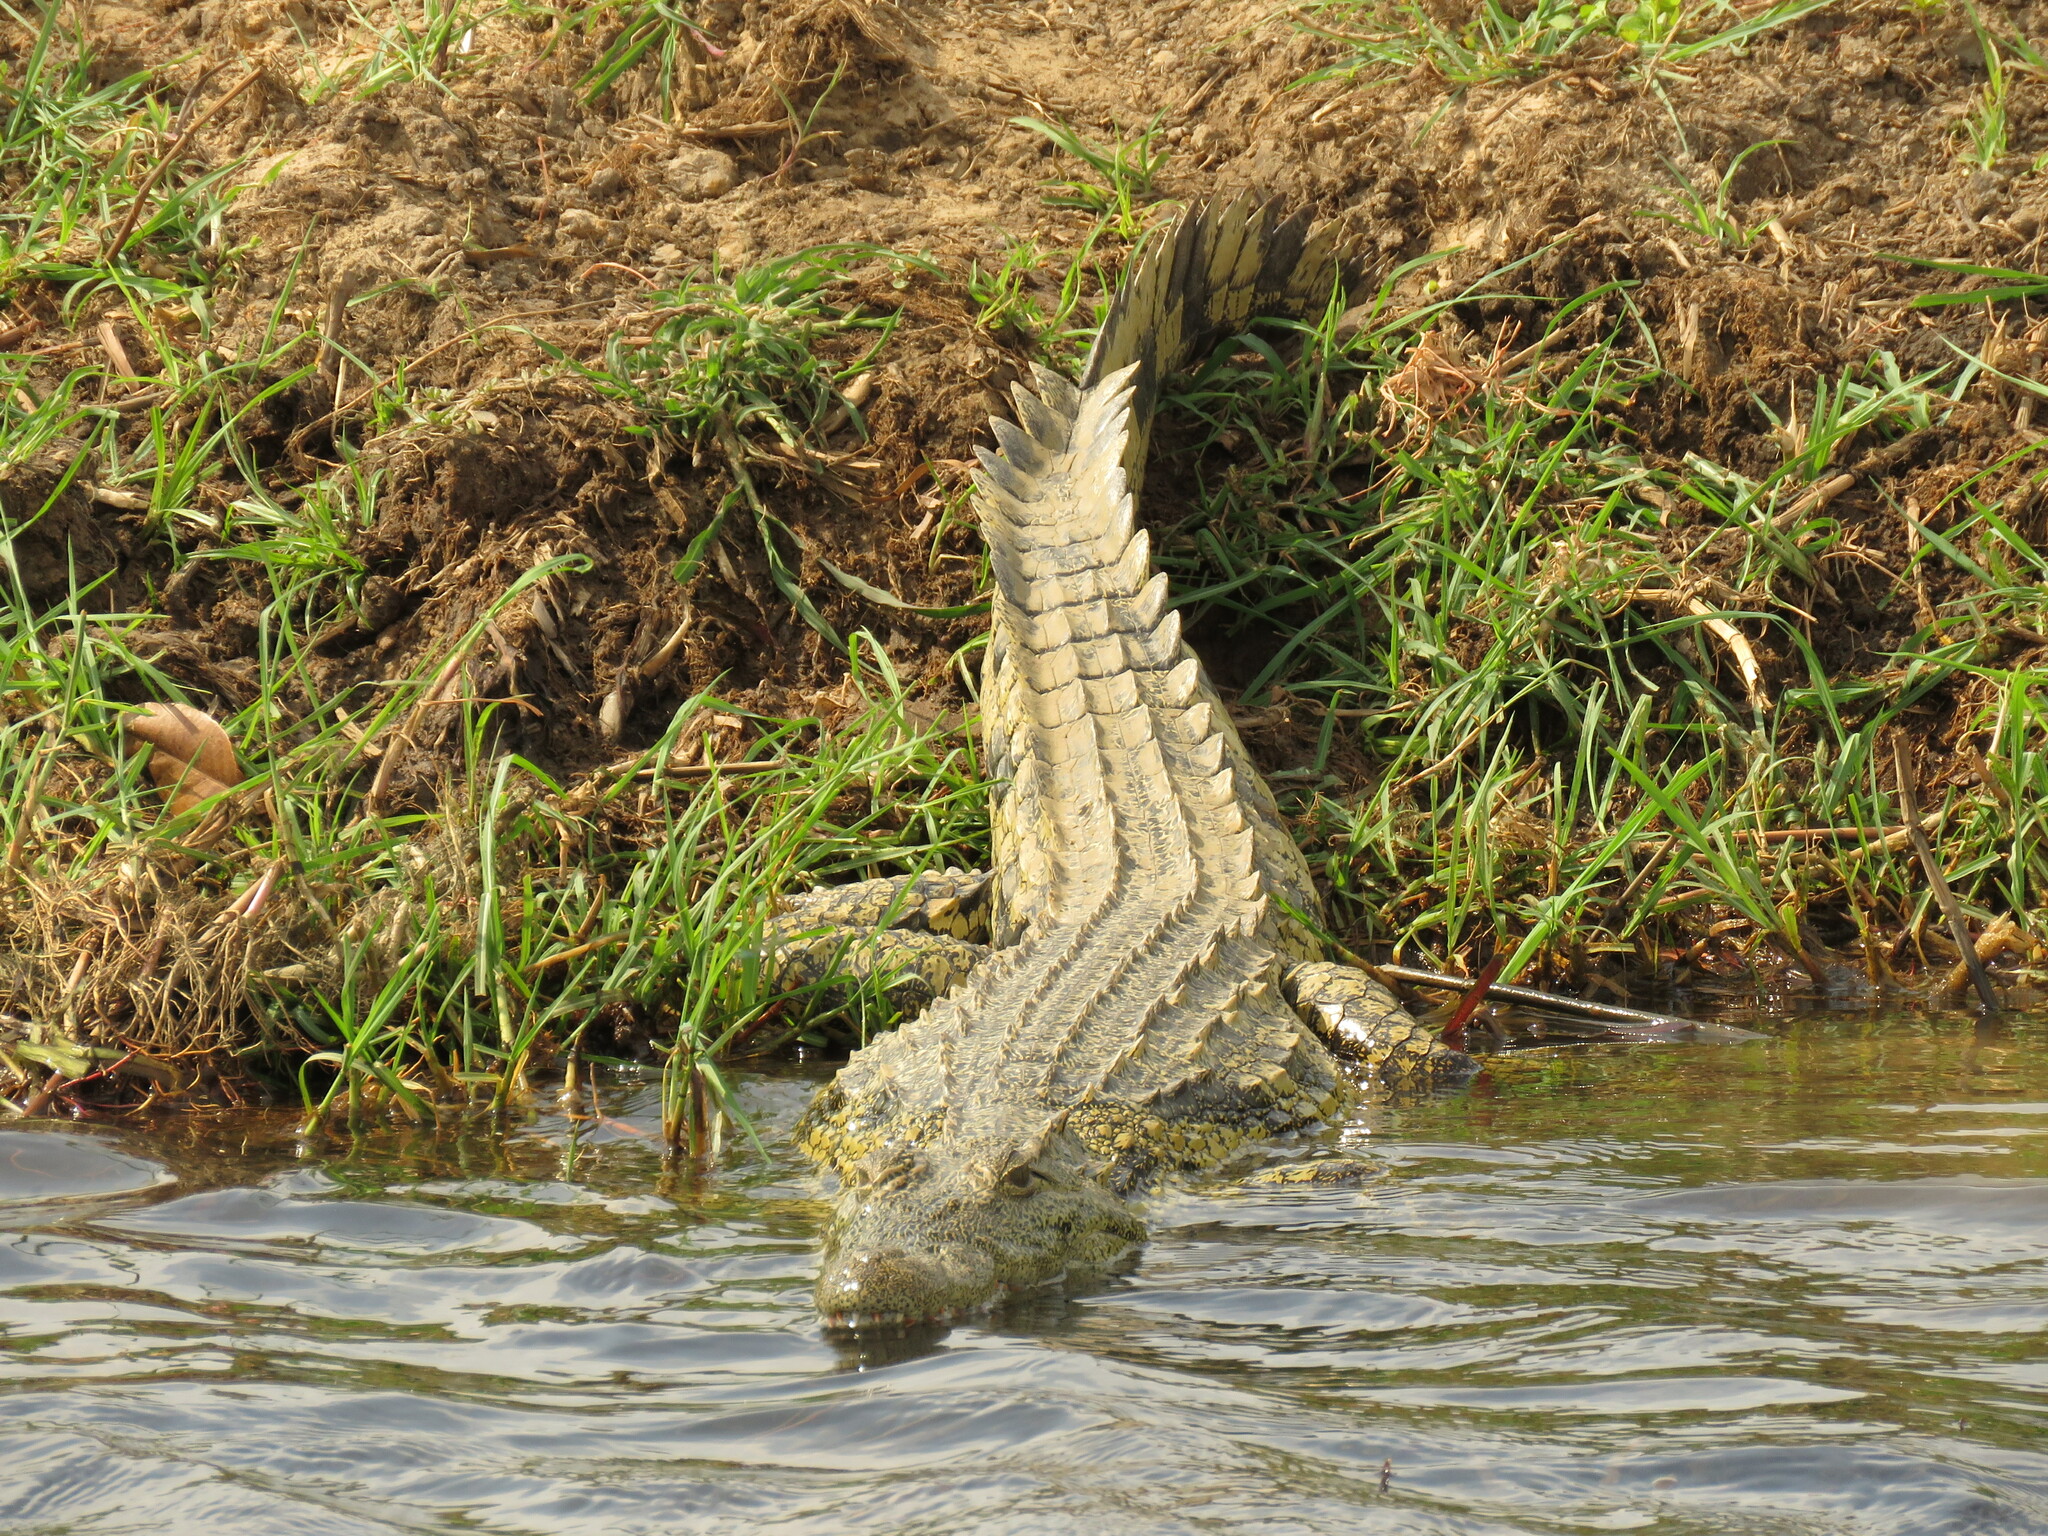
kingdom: Animalia
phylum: Chordata
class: Crocodylia
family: Crocodylidae
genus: Crocodylus
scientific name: Crocodylus niloticus
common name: Nile crocodile
